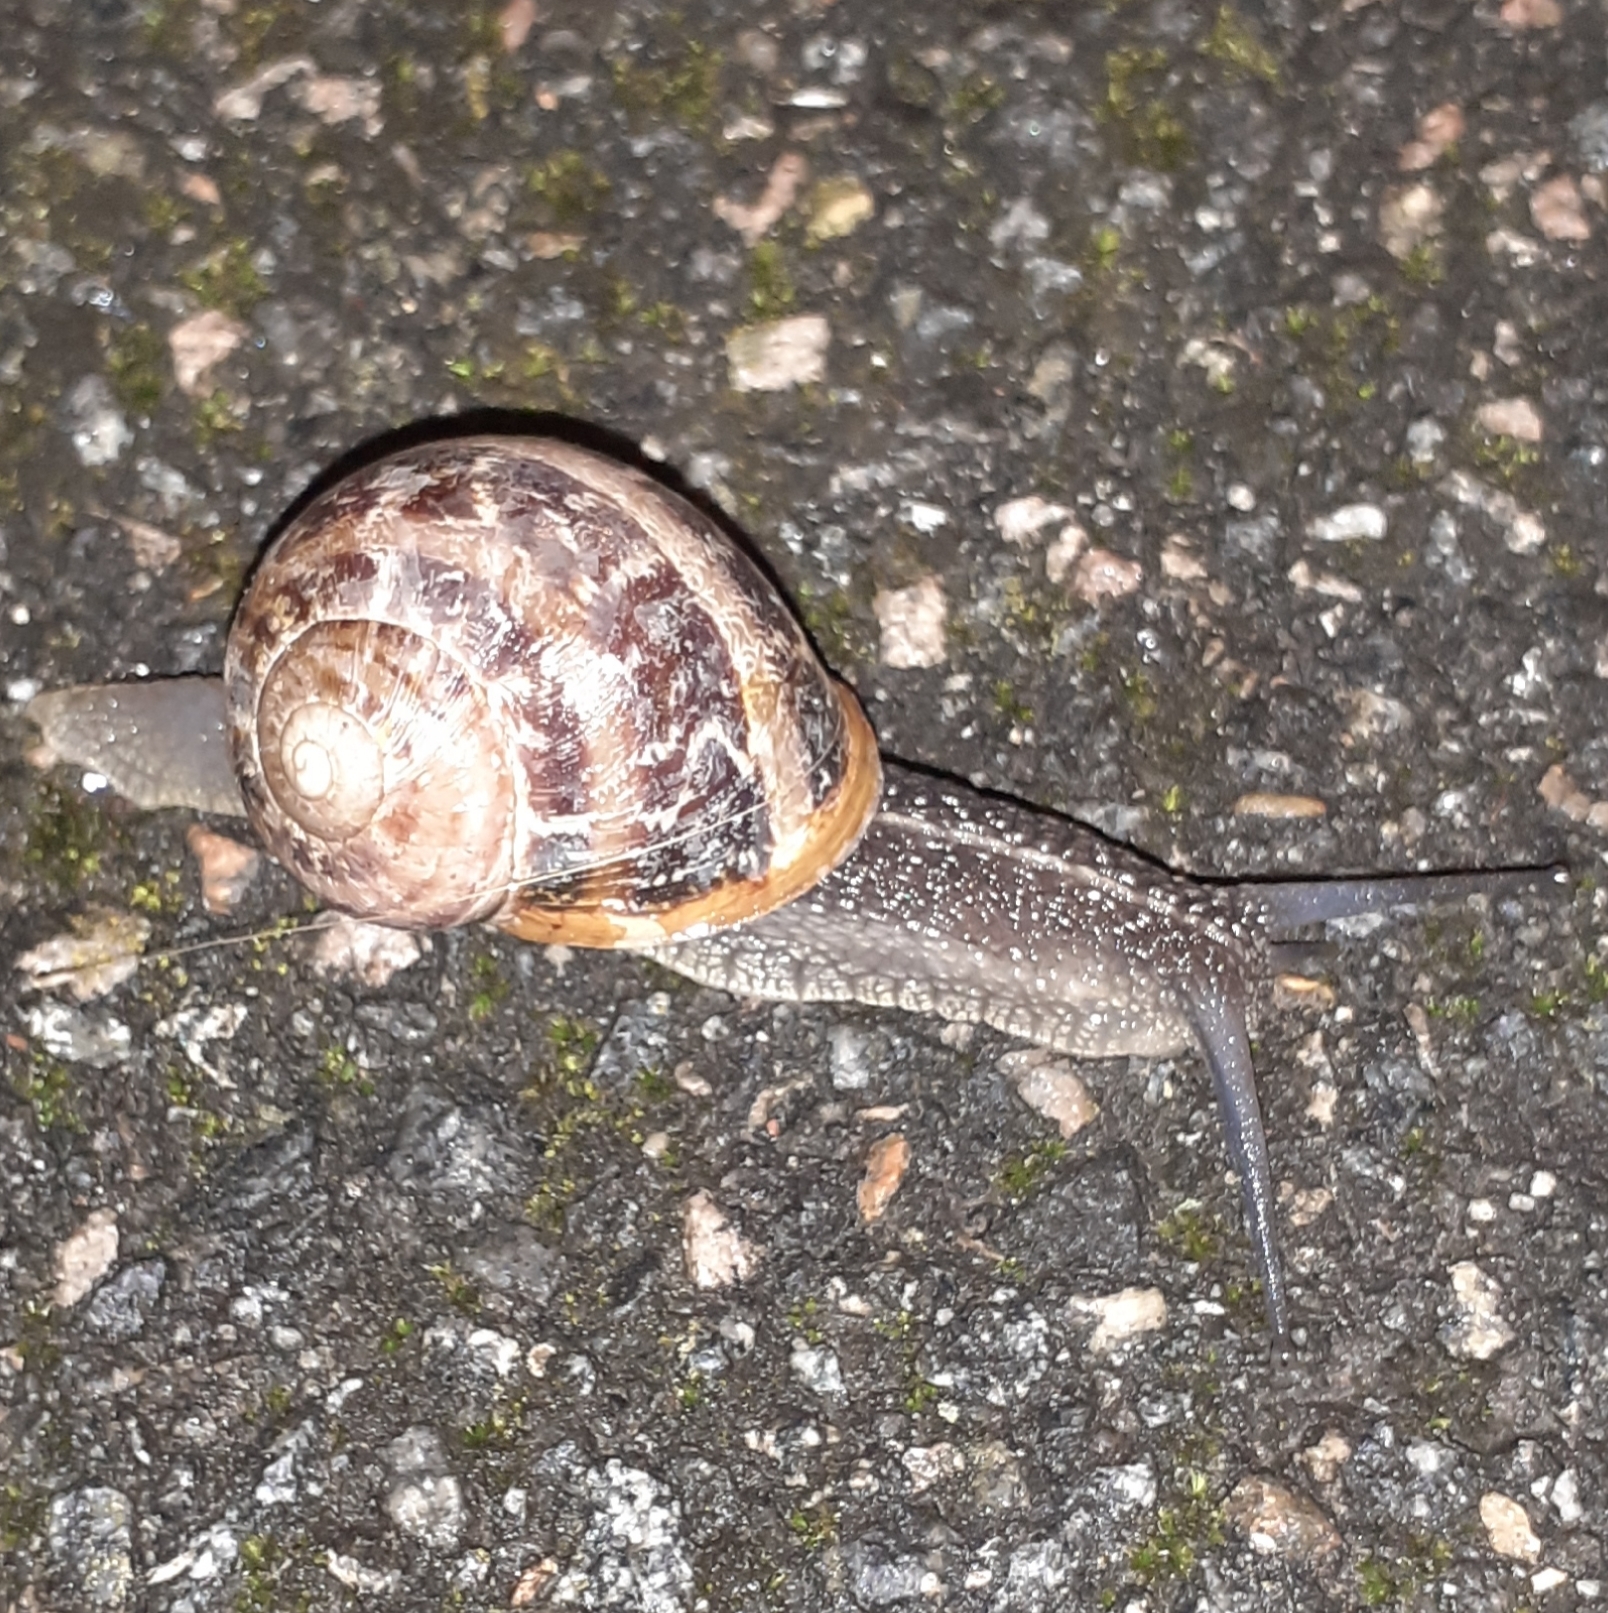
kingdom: Animalia
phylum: Mollusca
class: Gastropoda
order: Stylommatophora
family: Helicidae
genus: Cornu
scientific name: Cornu aspersum
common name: Brown garden snail
